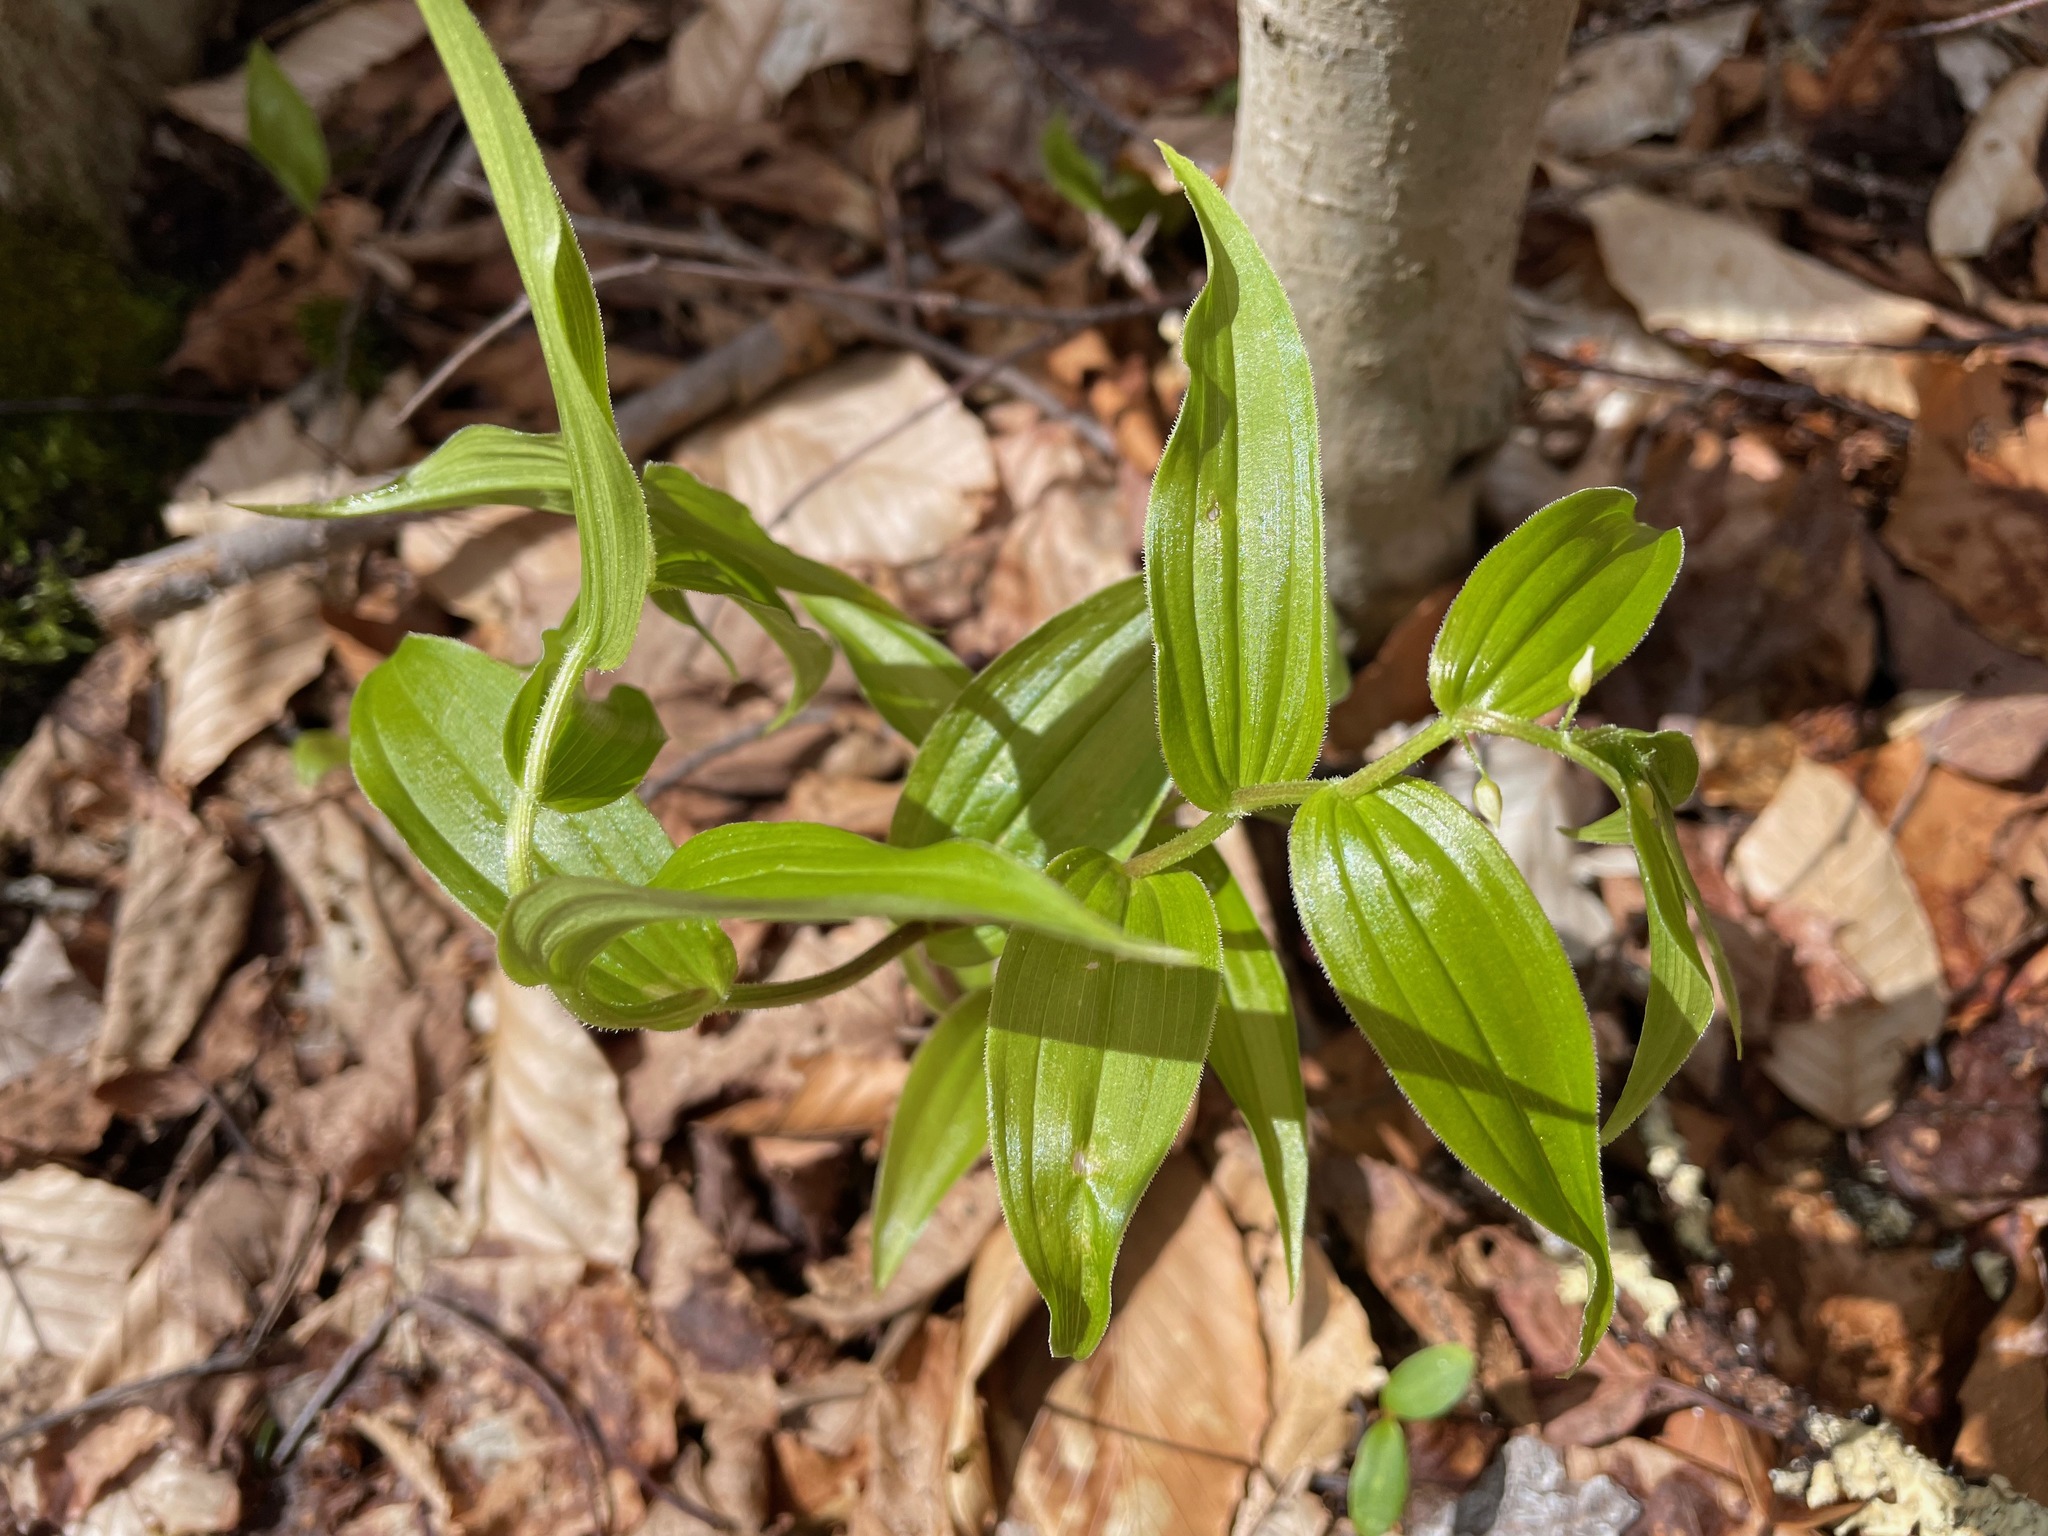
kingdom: Plantae
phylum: Tracheophyta
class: Liliopsida
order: Liliales
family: Liliaceae
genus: Streptopus
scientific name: Streptopus lanceolatus
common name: Rose mandarin
